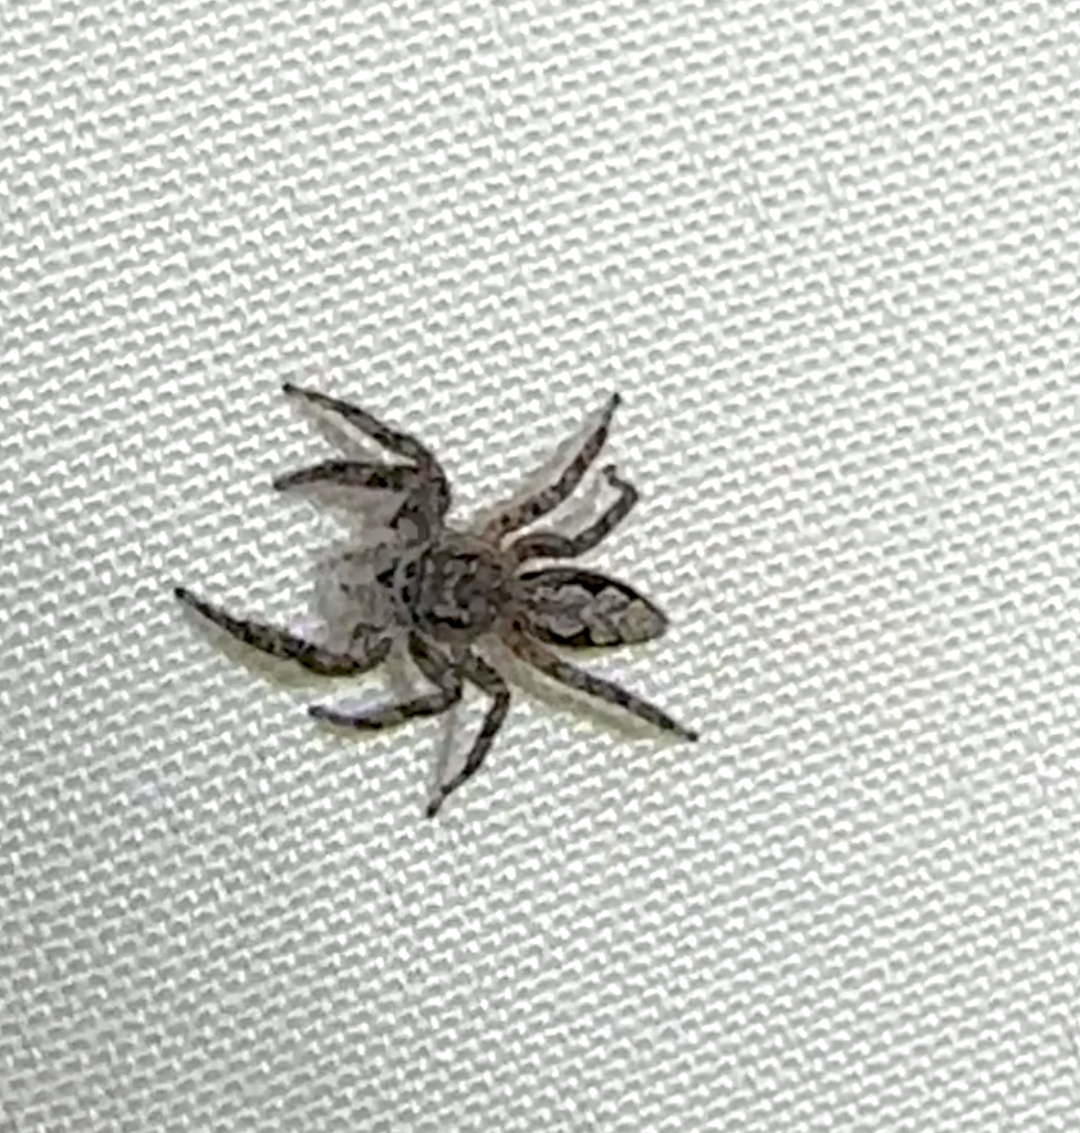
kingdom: Animalia
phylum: Arthropoda
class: Arachnida
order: Araneae
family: Salticidae
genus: Platycryptus
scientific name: Platycryptus undatus
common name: Tan jumping spider
